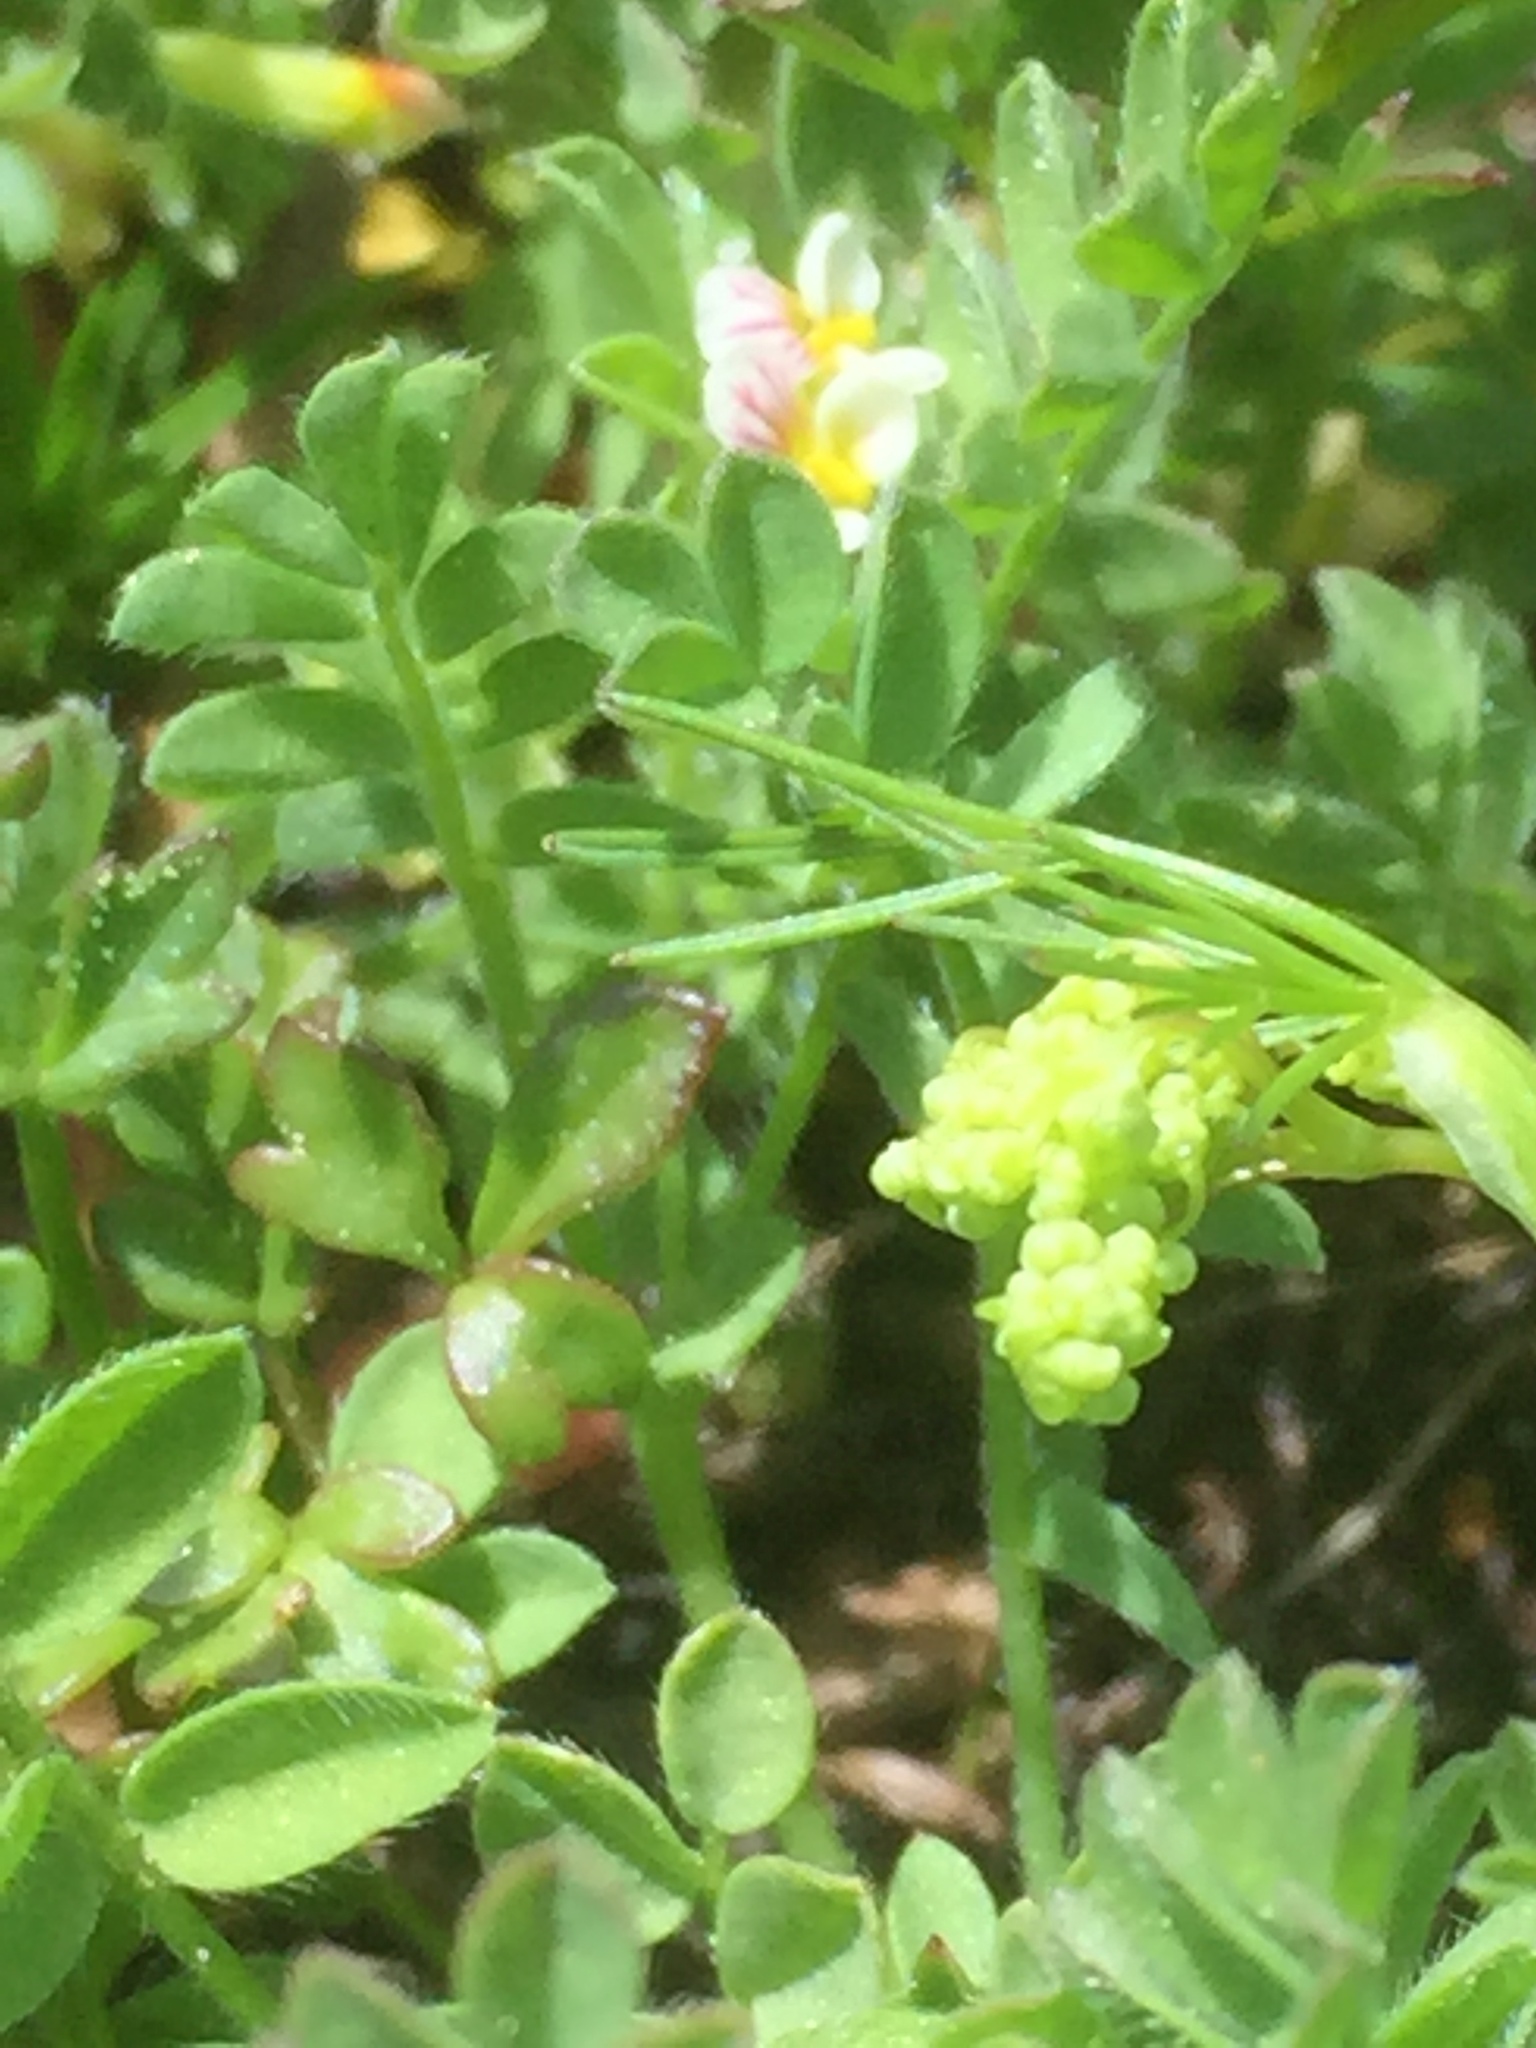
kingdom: Plantae
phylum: Tracheophyta
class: Magnoliopsida
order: Fabales
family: Fabaceae
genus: Ornithopus
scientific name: Ornithopus perpusillus
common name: Bird's-foot
